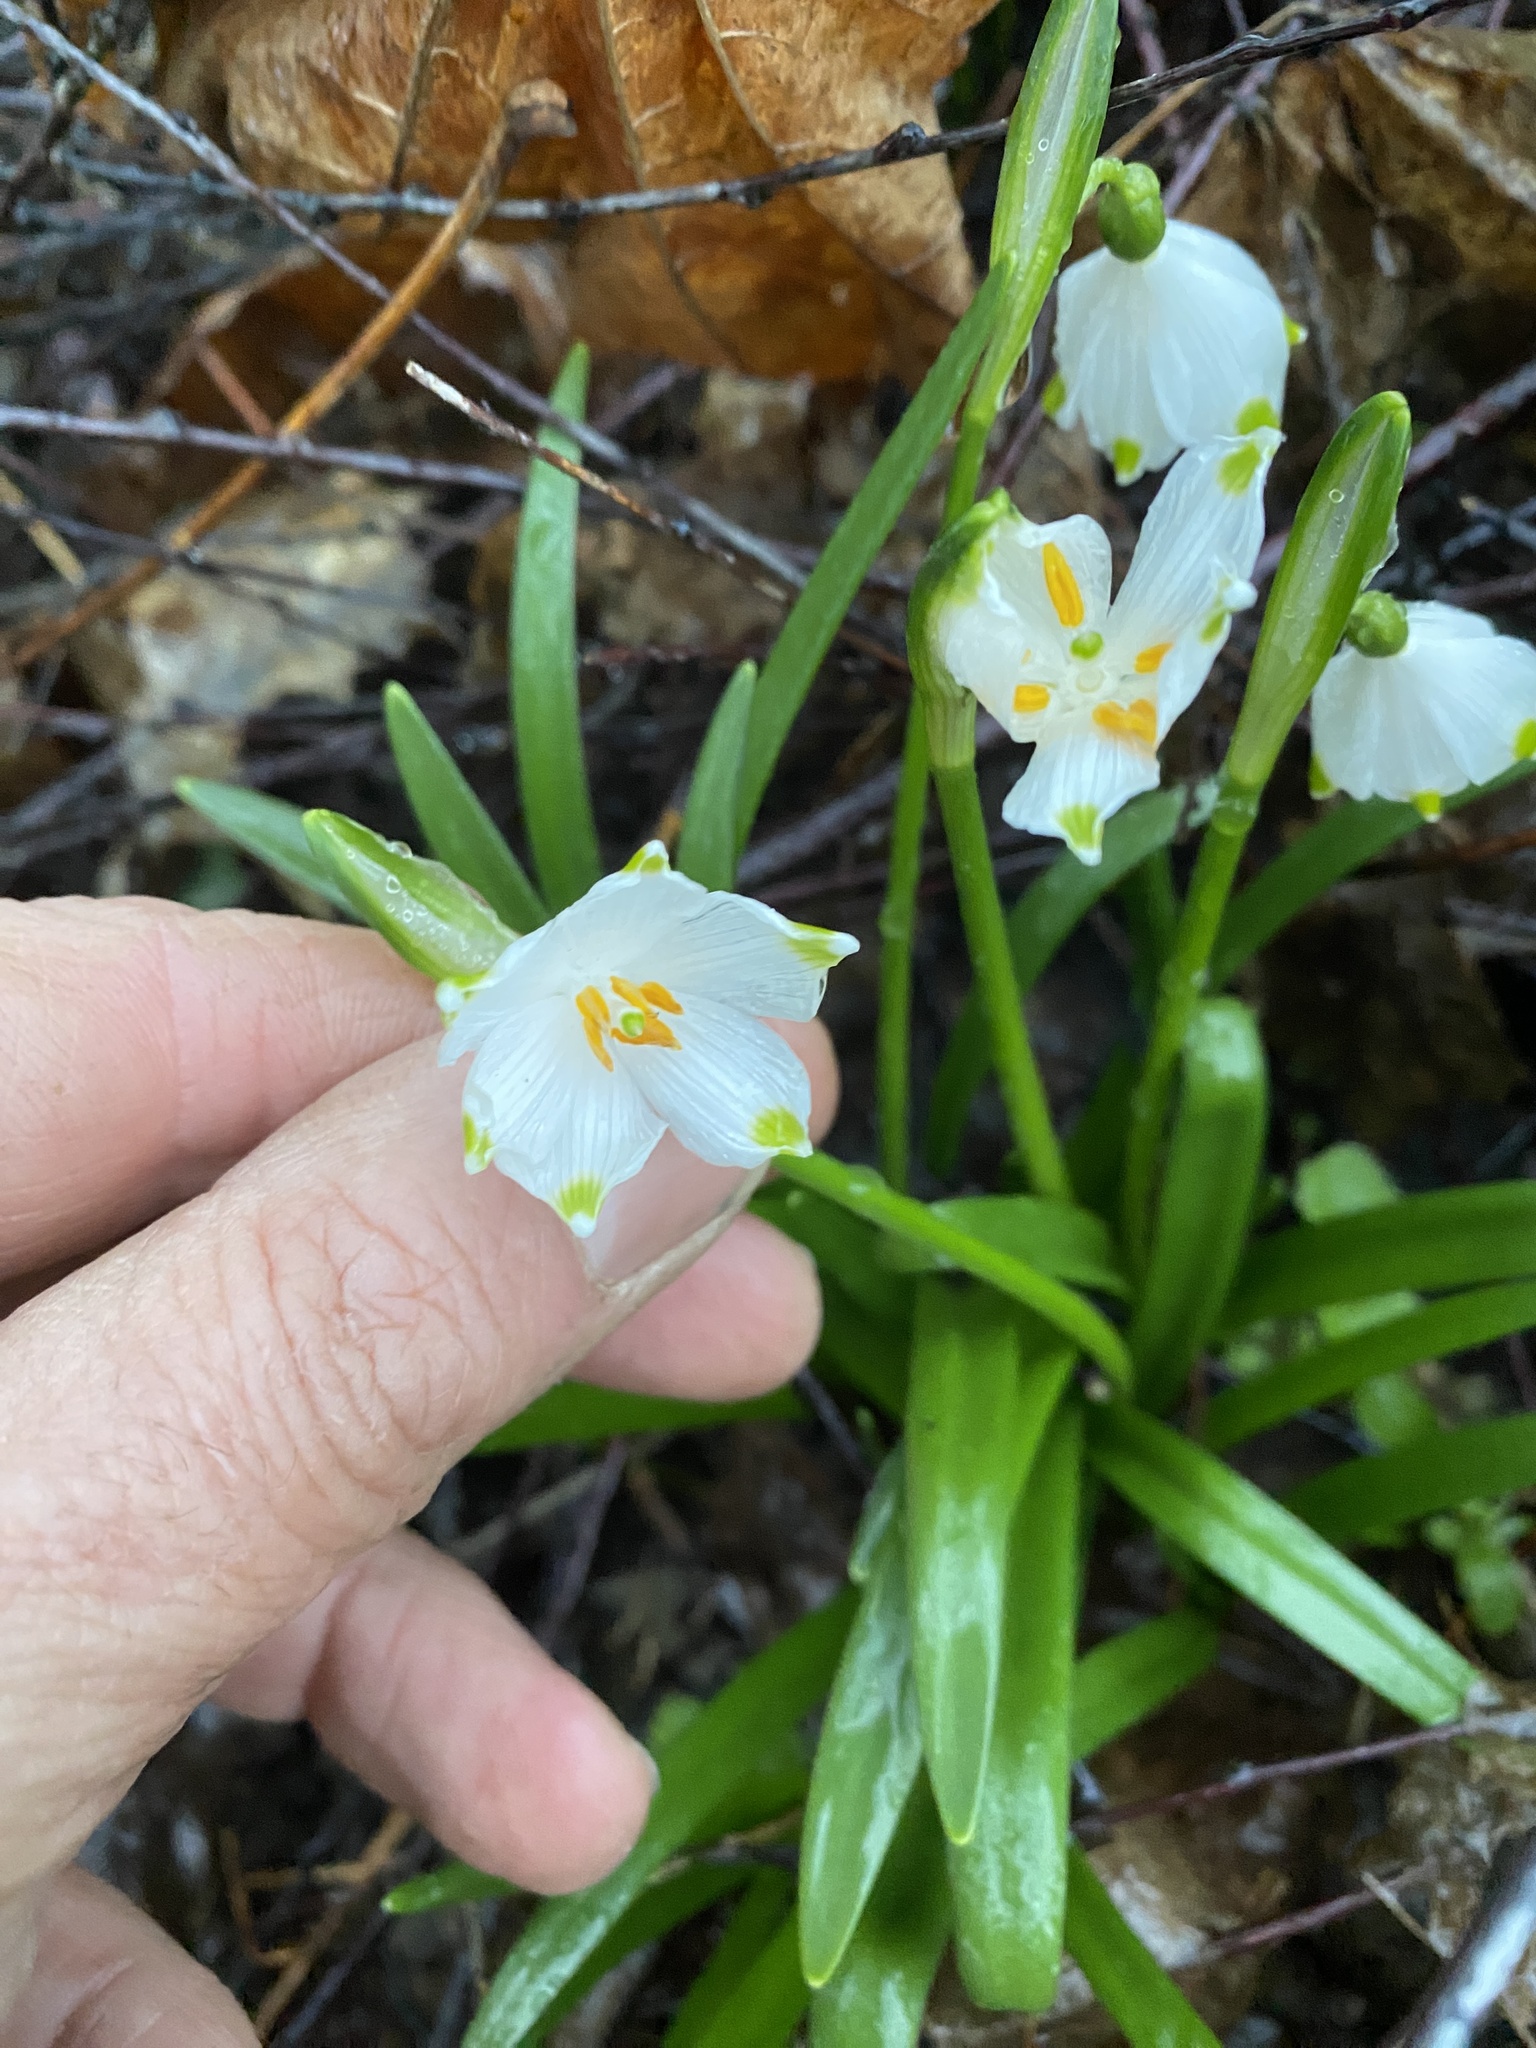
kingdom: Plantae
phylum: Tracheophyta
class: Liliopsida
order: Asparagales
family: Amaryllidaceae
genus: Leucojum
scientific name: Leucojum vernum
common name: Spring snowflake
